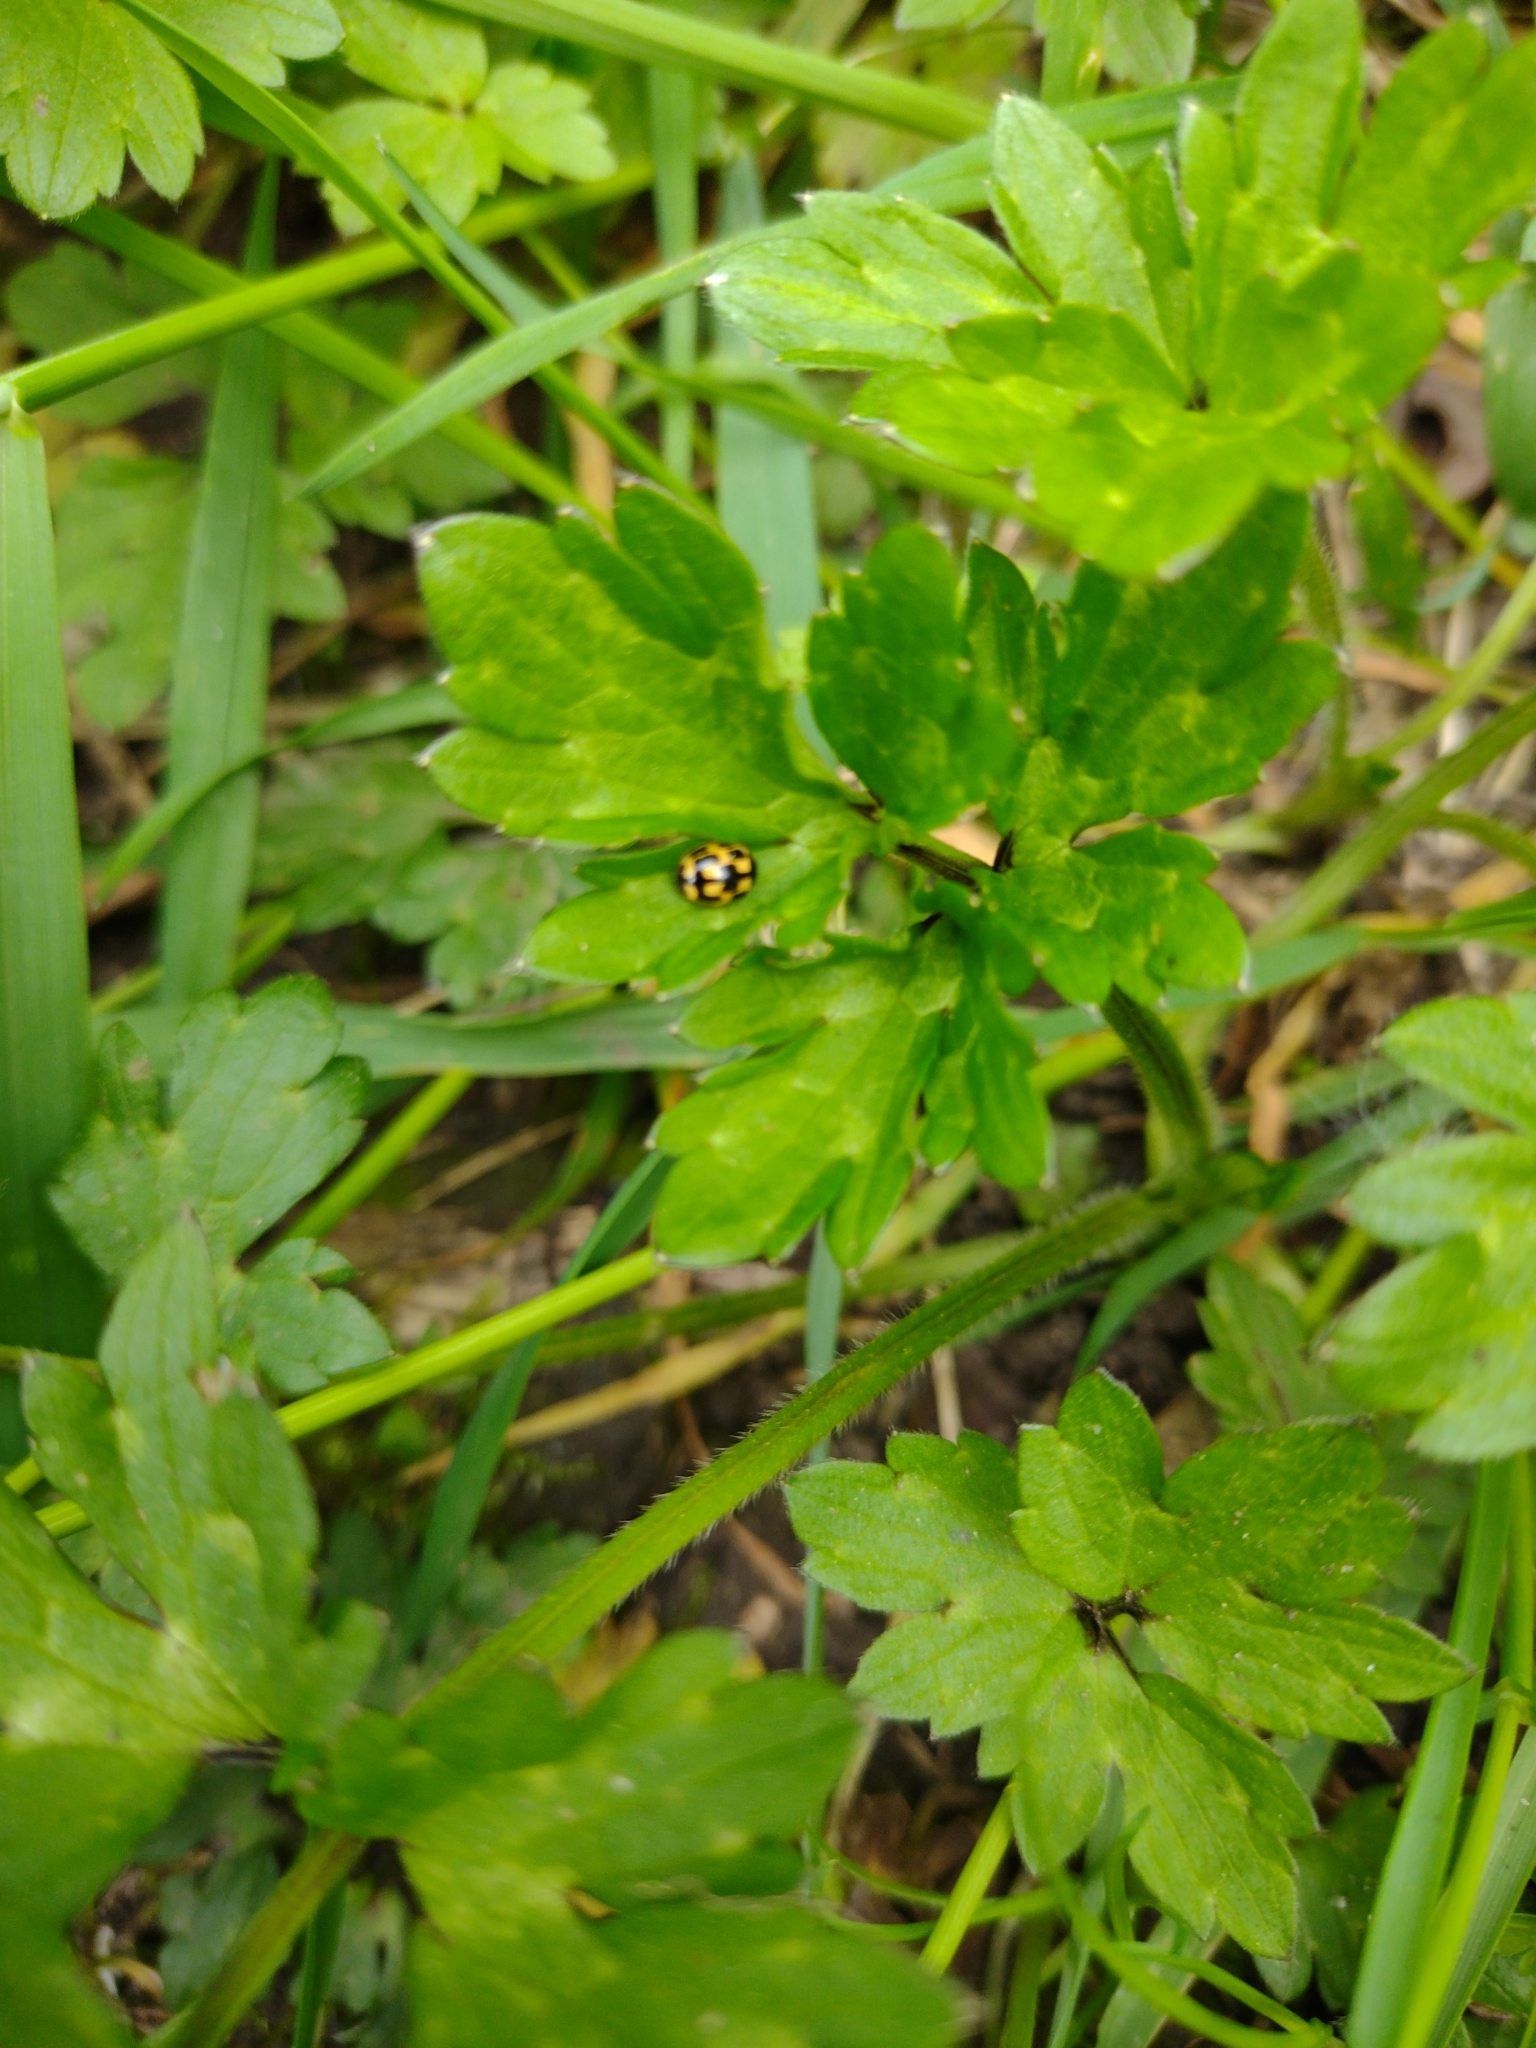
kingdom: Animalia
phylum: Arthropoda
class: Insecta
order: Coleoptera
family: Coccinellidae
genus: Propylaea
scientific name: Propylaea quatuordecimpunctata
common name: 14-spotted ladybird beetle
